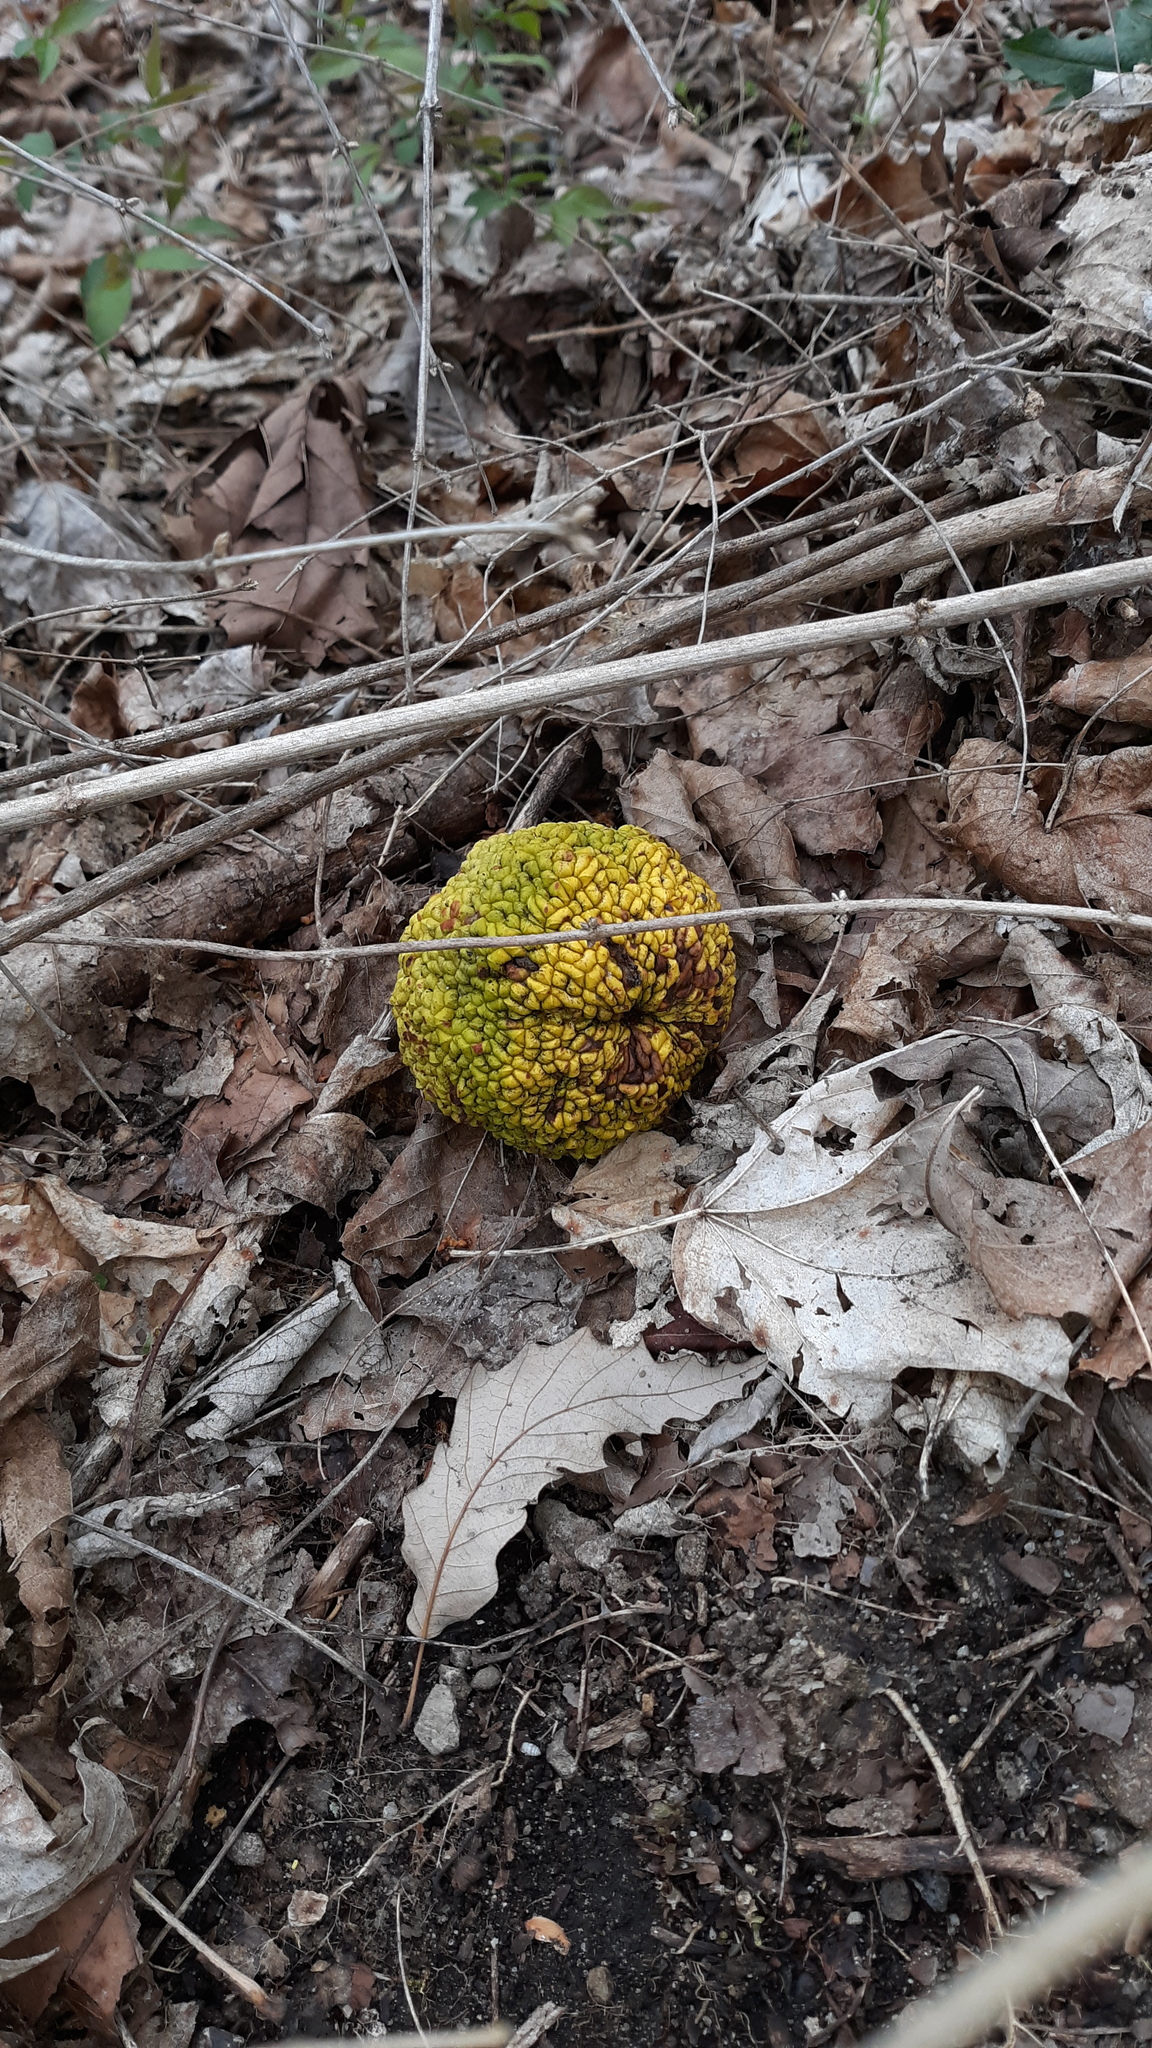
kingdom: Plantae
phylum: Tracheophyta
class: Magnoliopsida
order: Rosales
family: Moraceae
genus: Maclura
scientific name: Maclura pomifera
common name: Osage-orange
